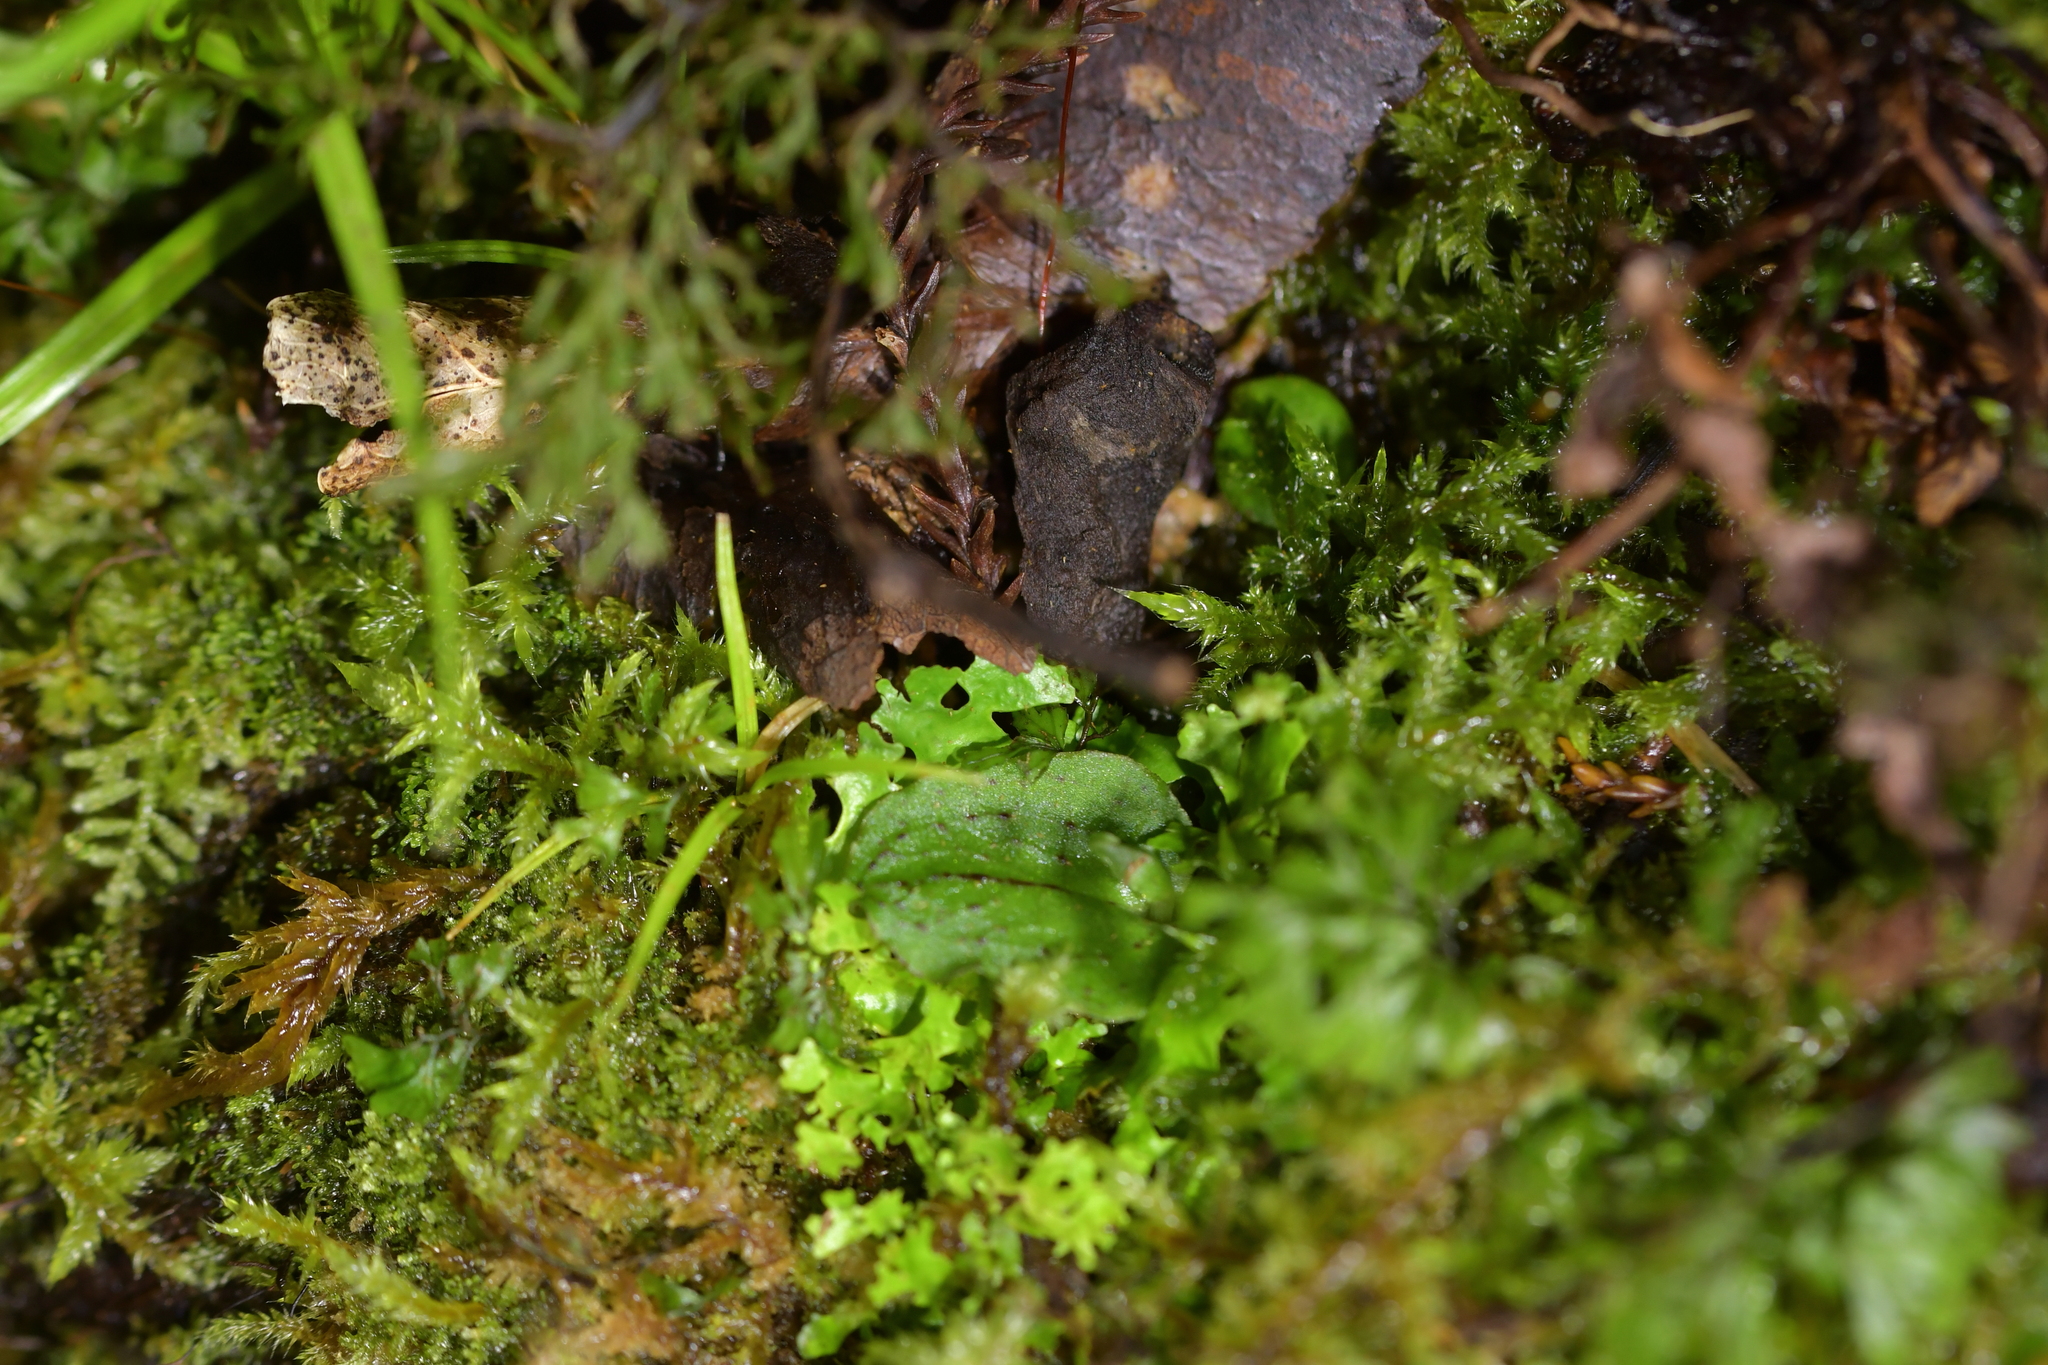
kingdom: Plantae
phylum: Tracheophyta
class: Liliopsida
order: Asparagales
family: Orchidaceae
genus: Corybas
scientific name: Corybas oblongus
